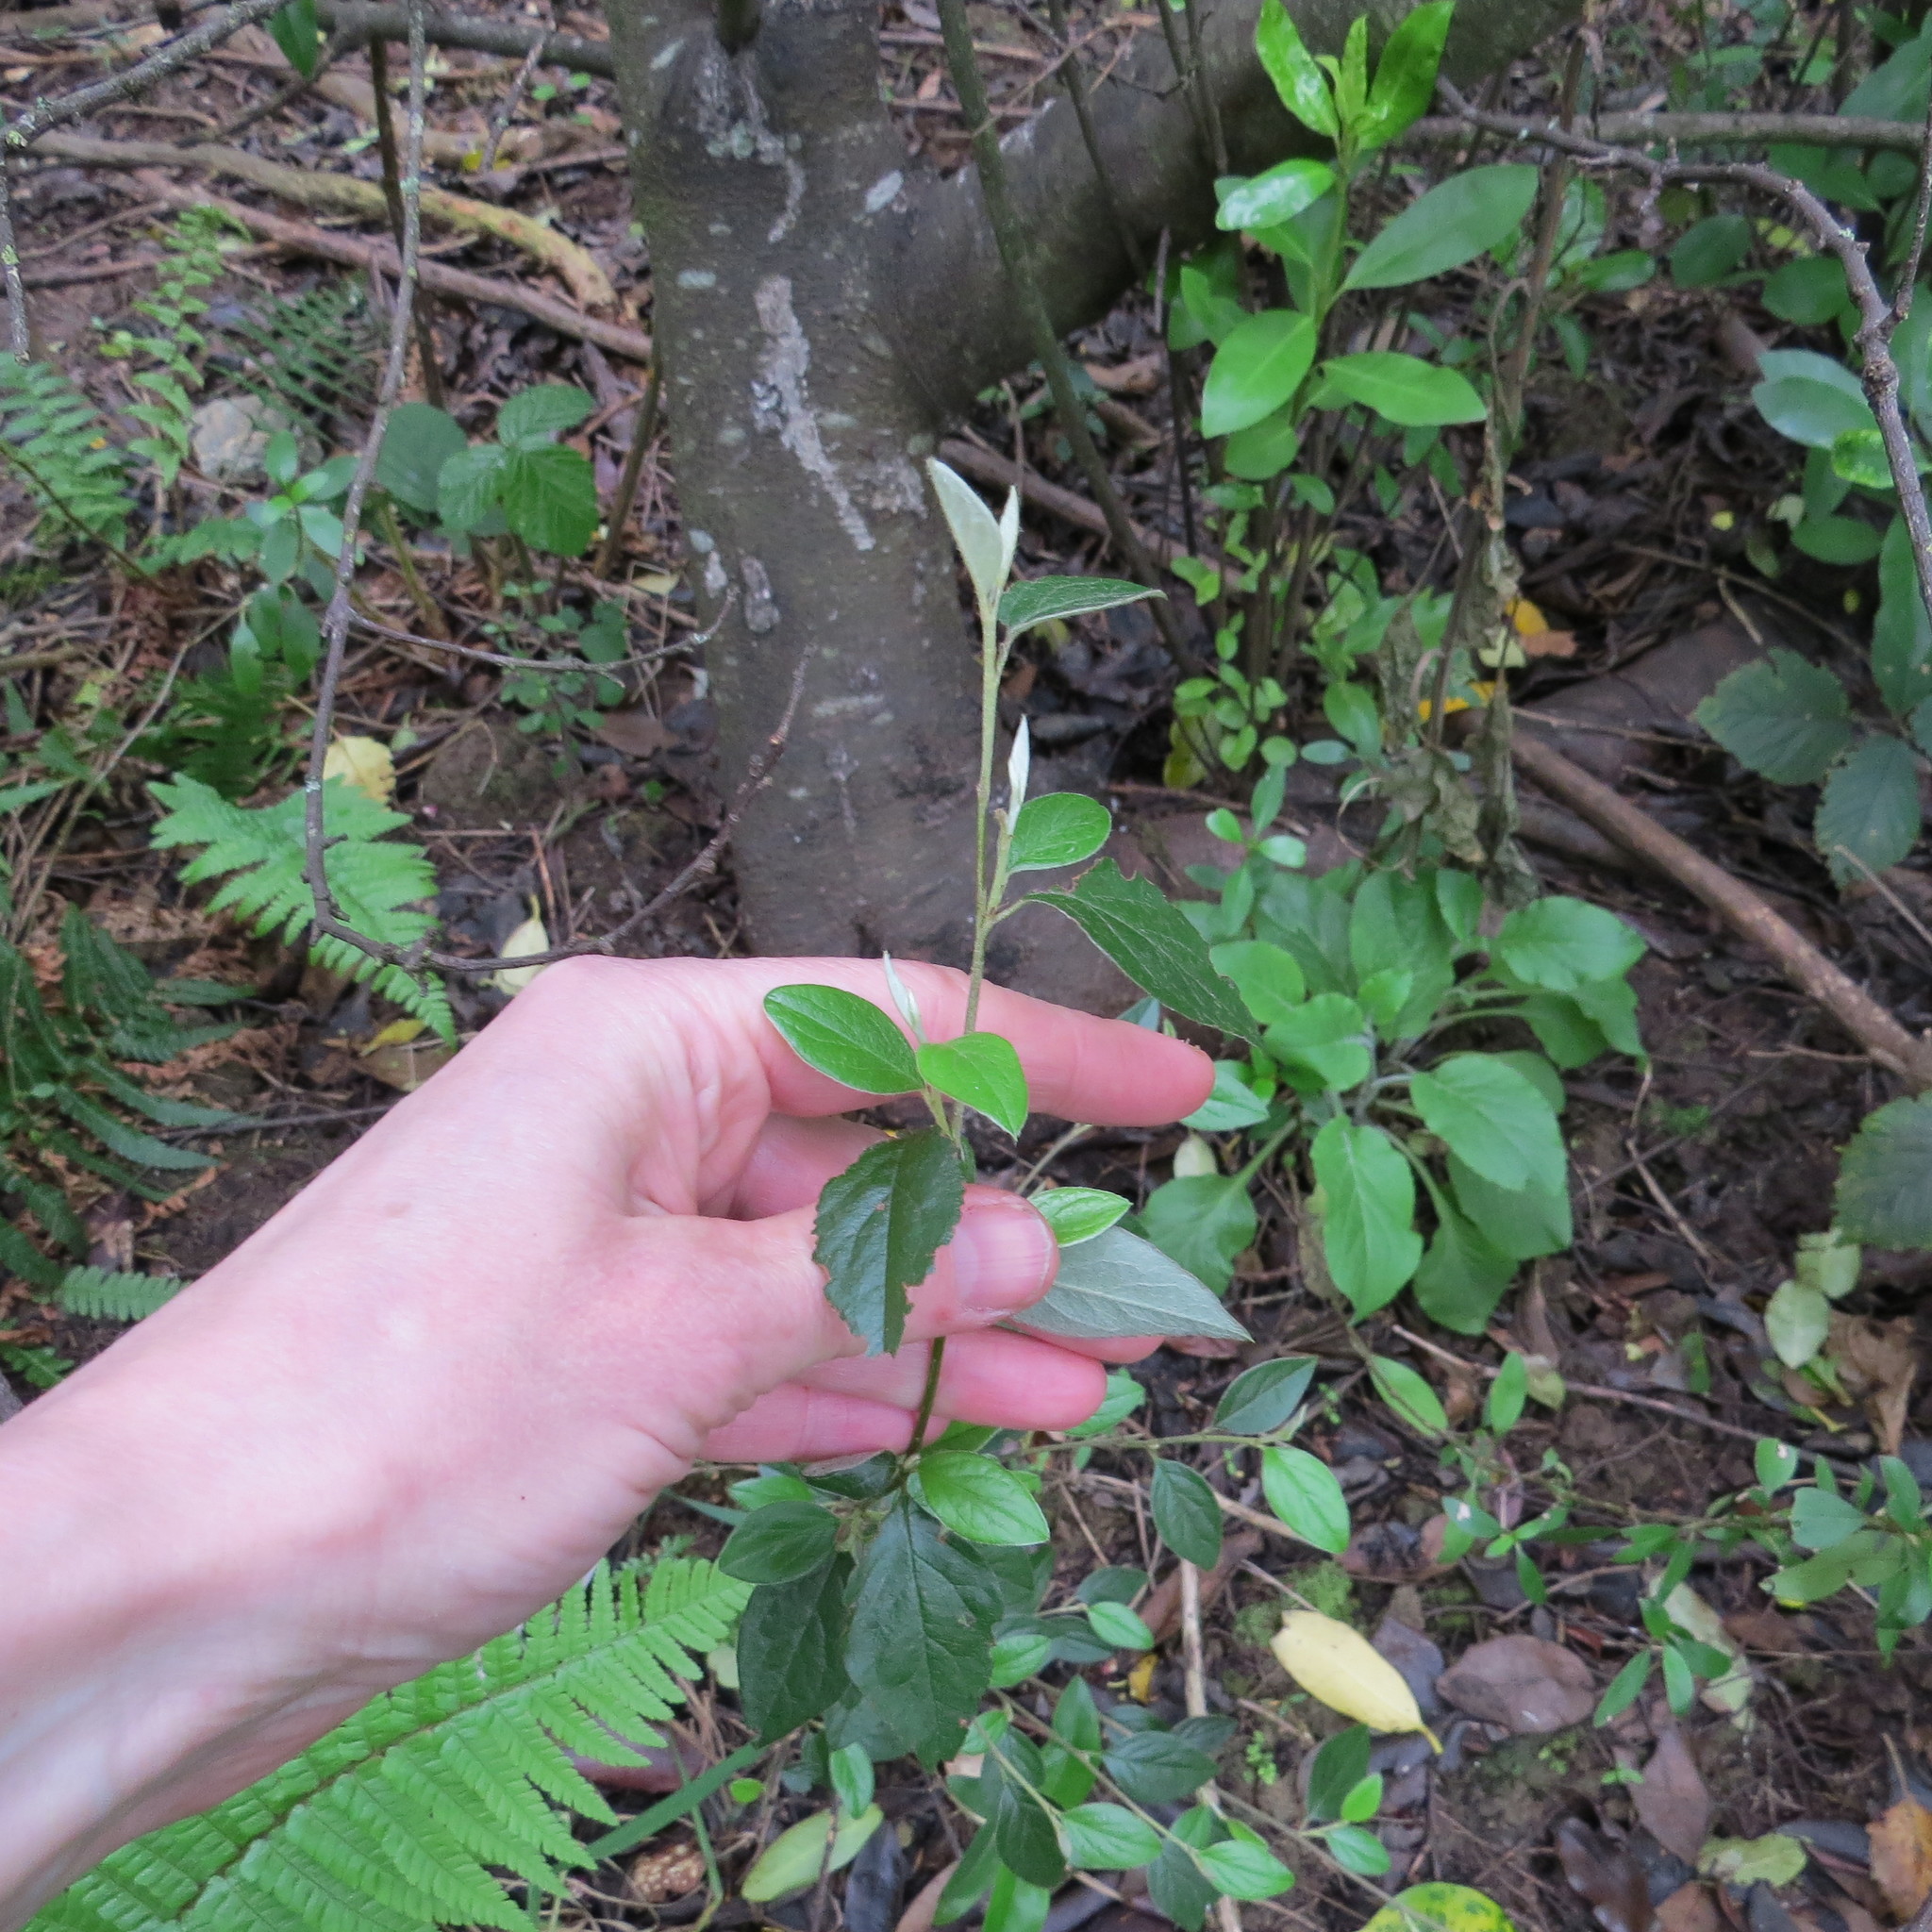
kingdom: Plantae
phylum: Tracheophyta
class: Magnoliopsida
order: Rosales
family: Rosaceae
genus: Cotoneaster
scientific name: Cotoneaster franchetii
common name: Franchet's cotoneaster
